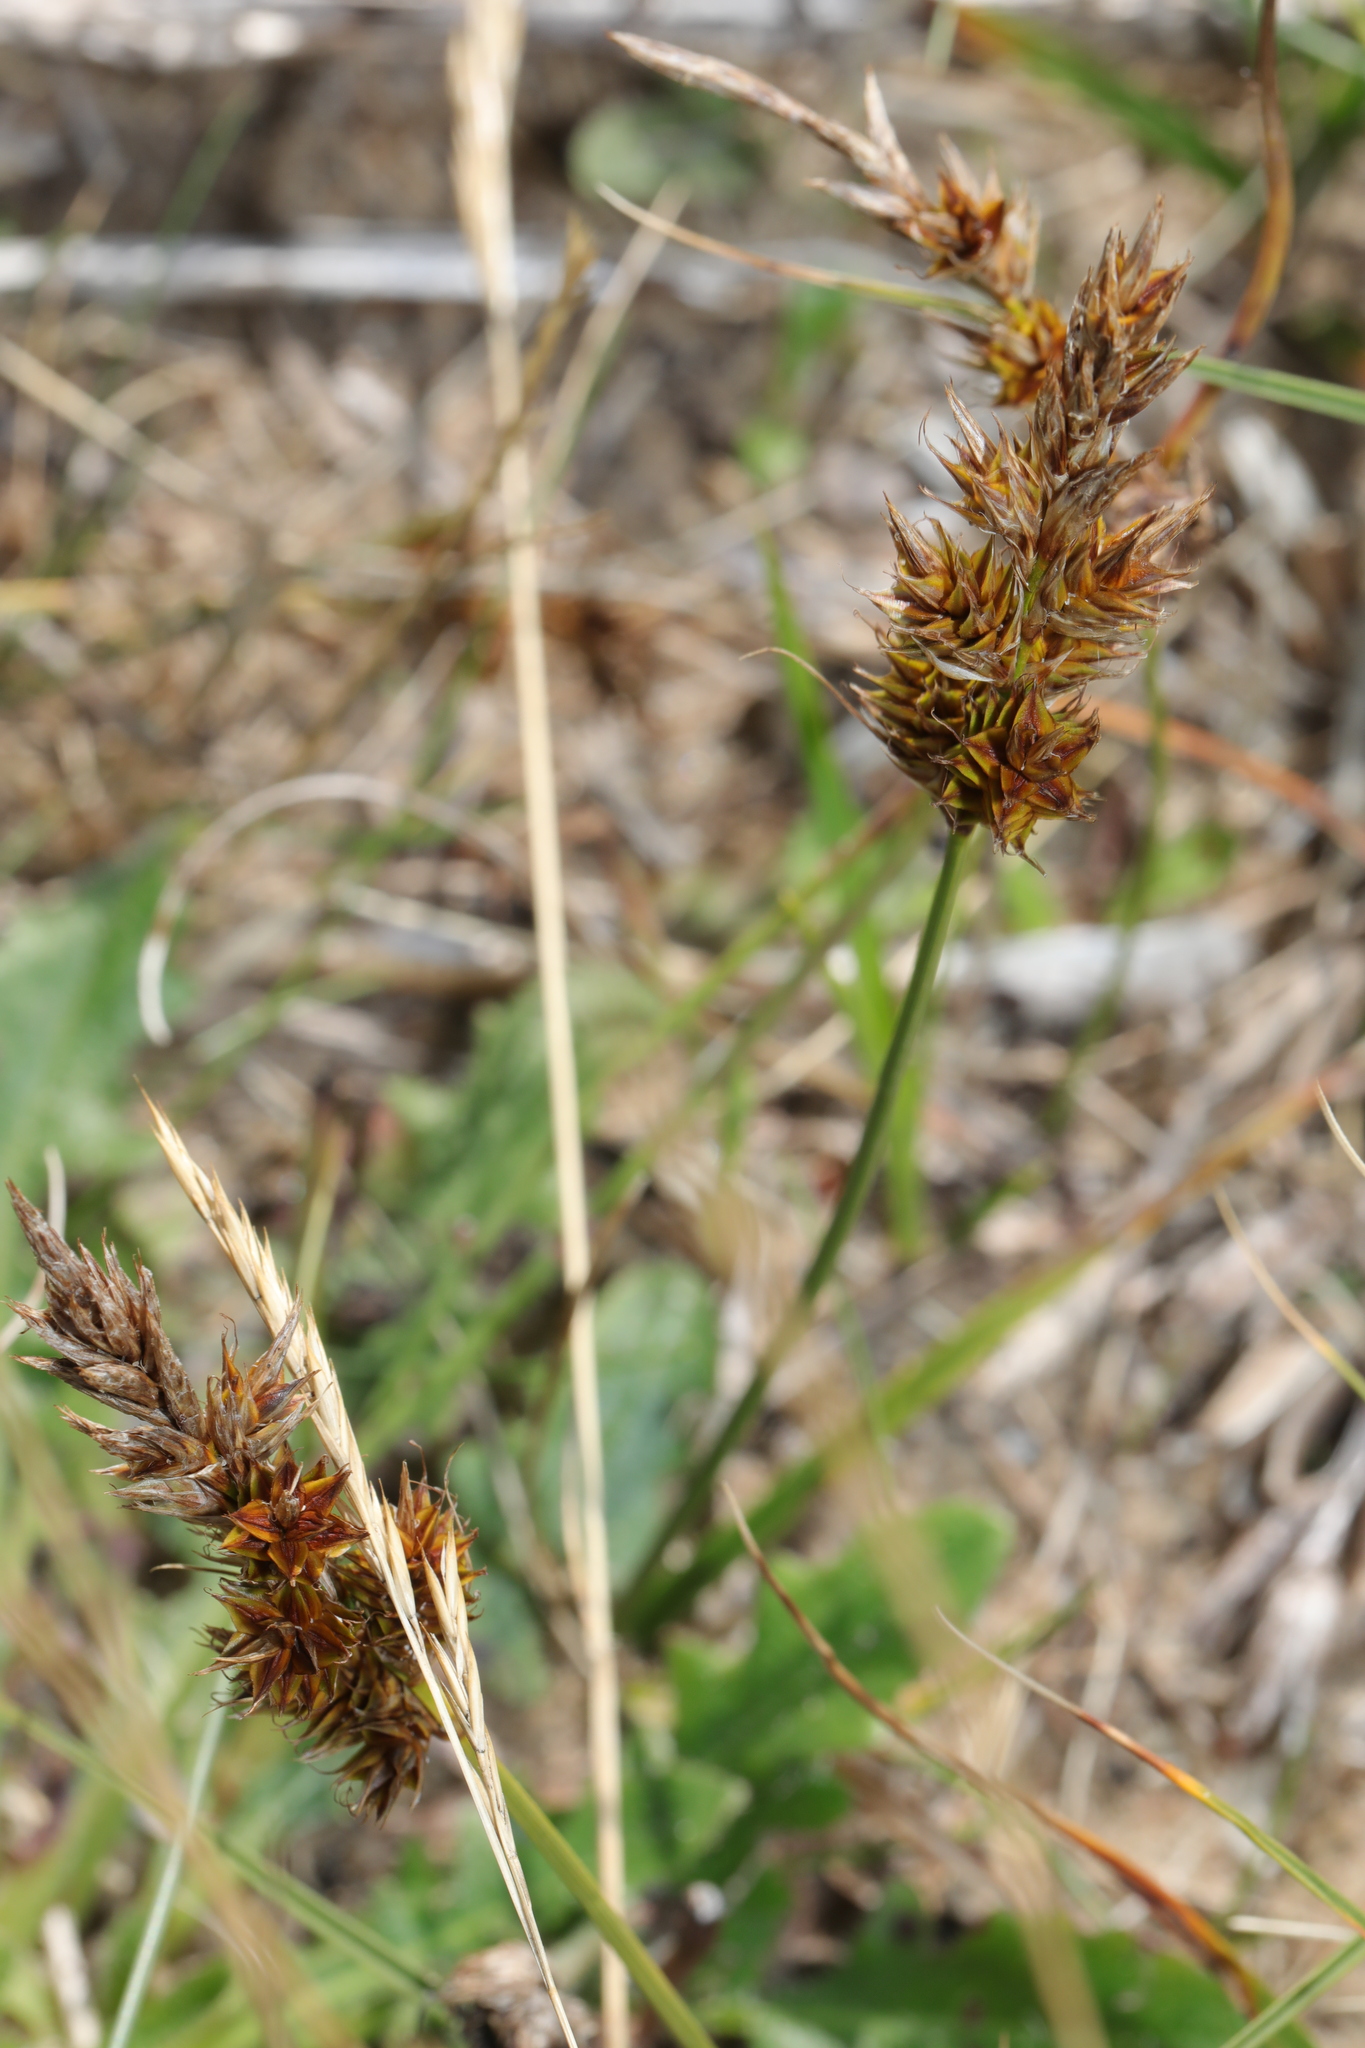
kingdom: Plantae
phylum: Tracheophyta
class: Liliopsida
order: Poales
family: Cyperaceae
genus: Carex
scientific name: Carex arenaria
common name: Sand sedge
